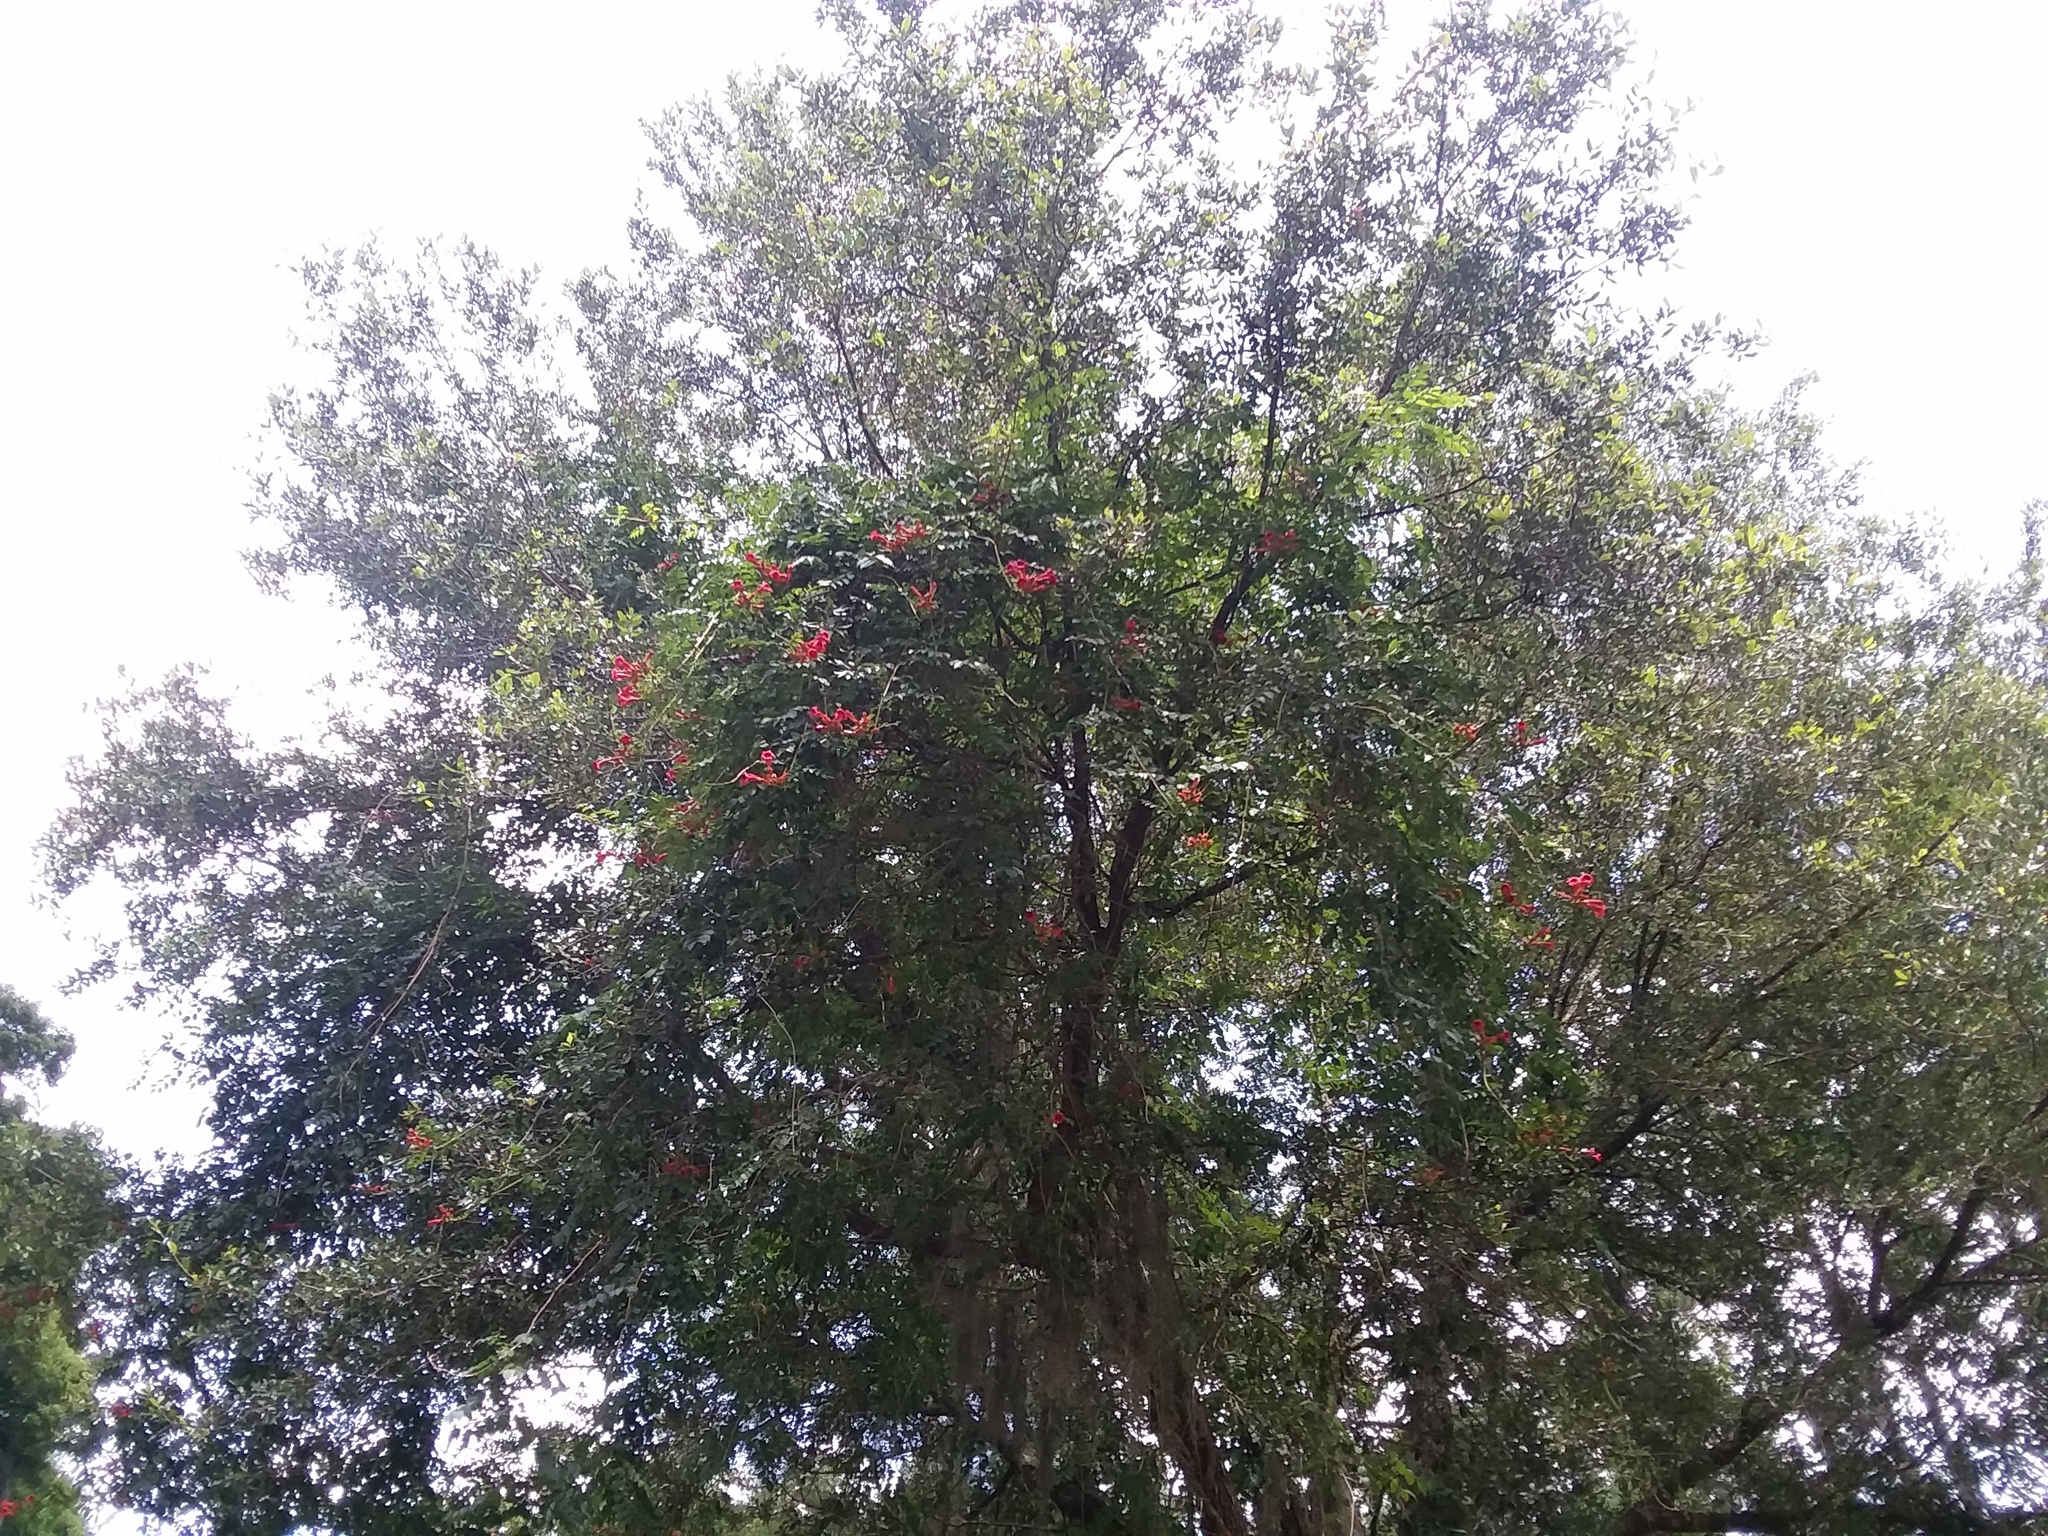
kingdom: Plantae
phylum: Tracheophyta
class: Magnoliopsida
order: Lamiales
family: Bignoniaceae
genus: Campsis
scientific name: Campsis radicans
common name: Trumpet-creeper
